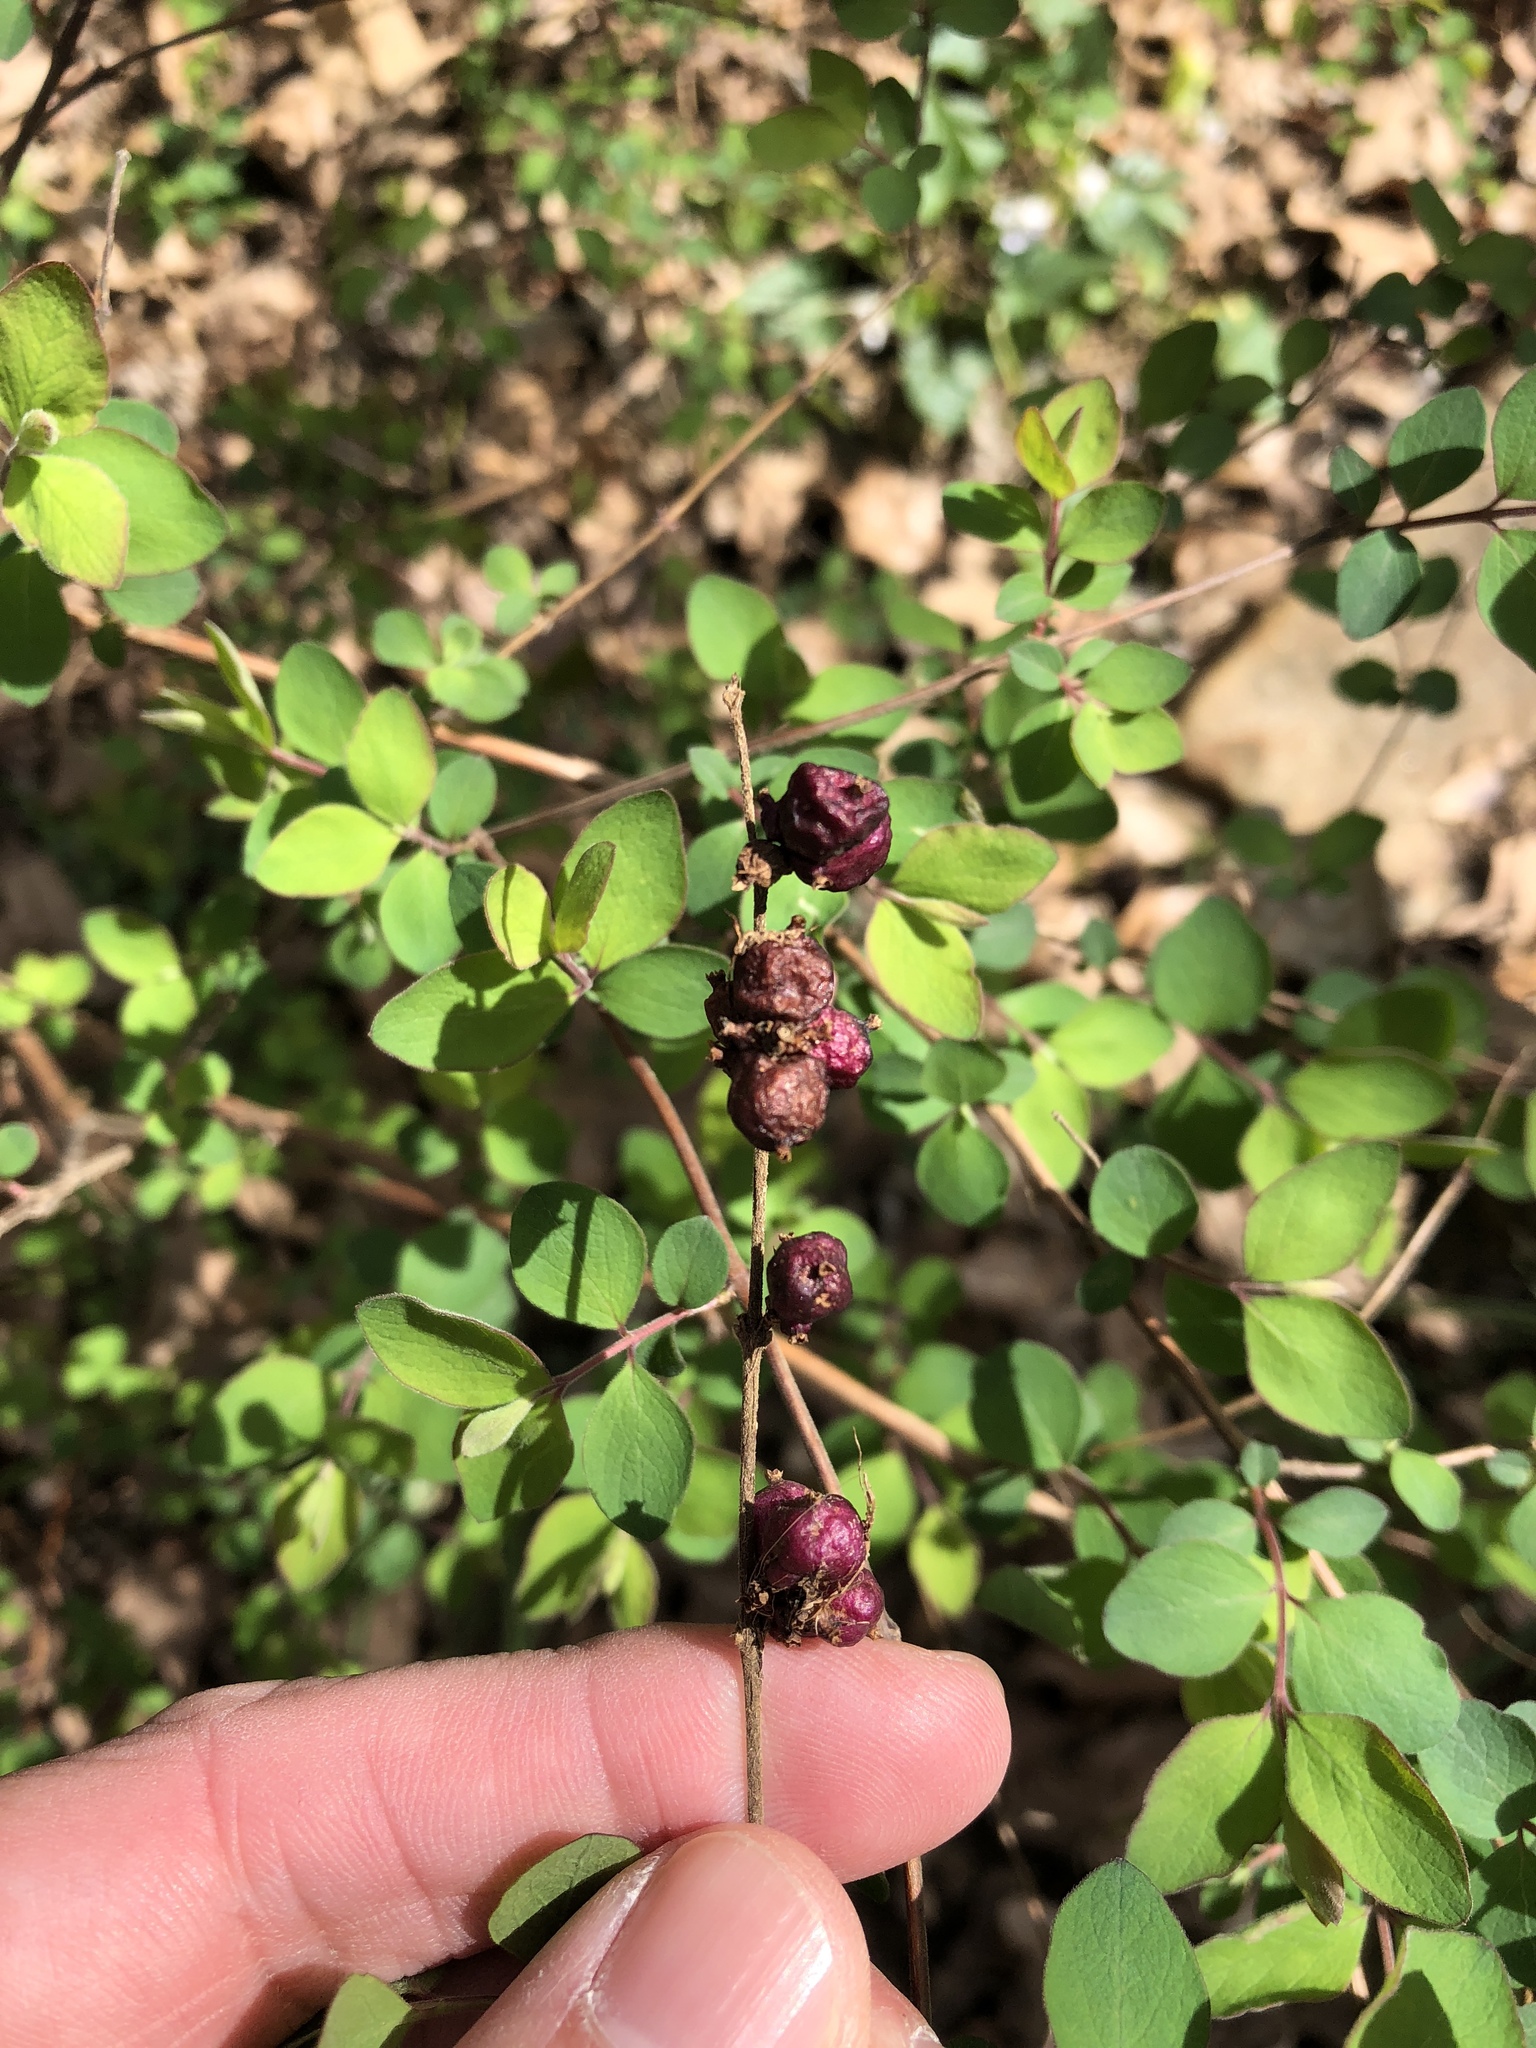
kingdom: Plantae
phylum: Tracheophyta
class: Magnoliopsida
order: Dipsacales
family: Caprifoliaceae
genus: Symphoricarpos
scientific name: Symphoricarpos orbiculatus
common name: Coralberry
